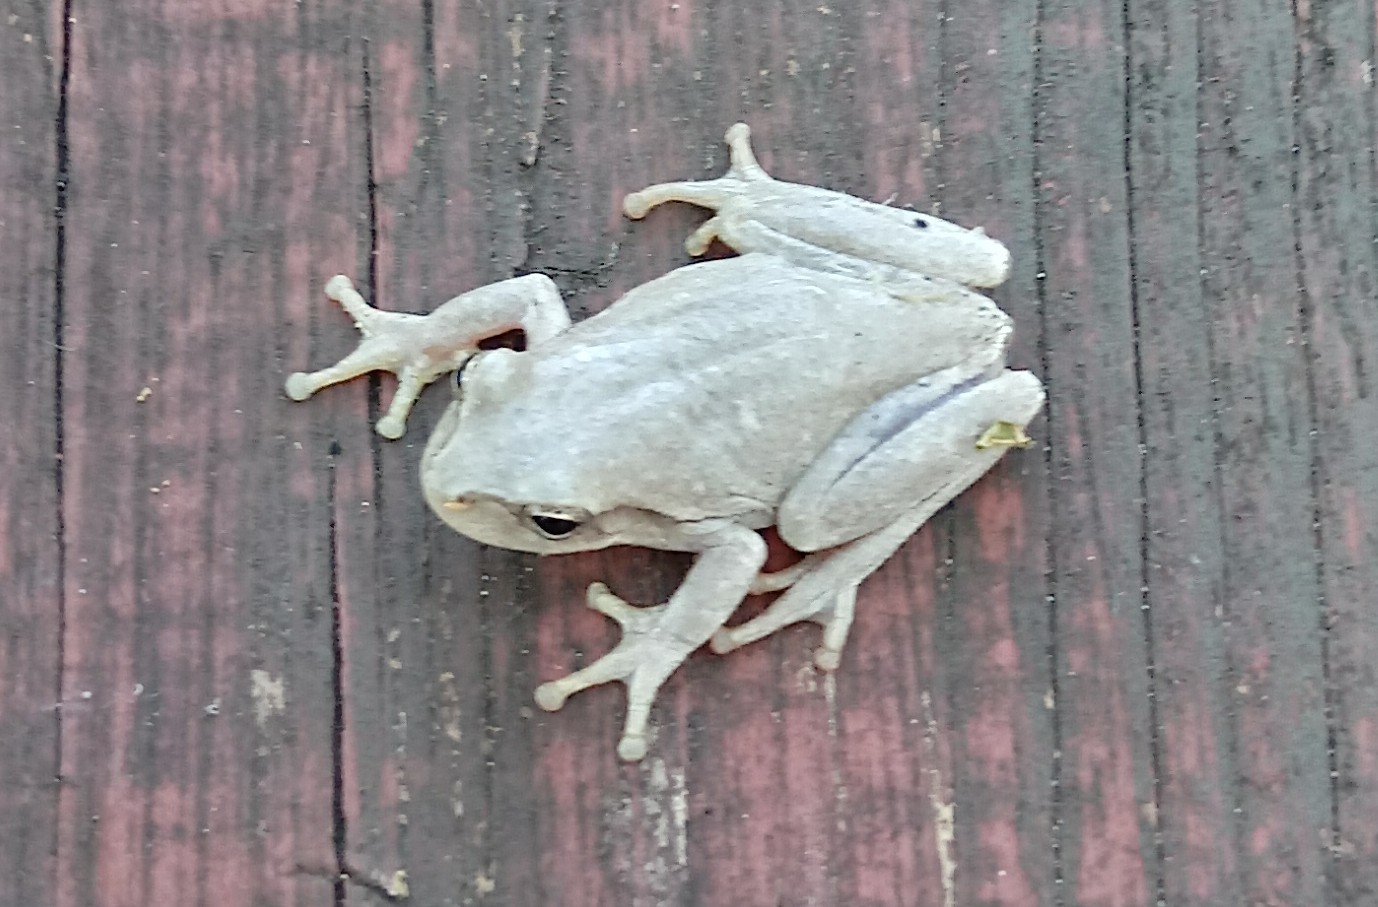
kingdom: Animalia
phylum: Chordata
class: Amphibia
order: Anura
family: Hylidae
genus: Hyla
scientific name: Hyla femoralis
